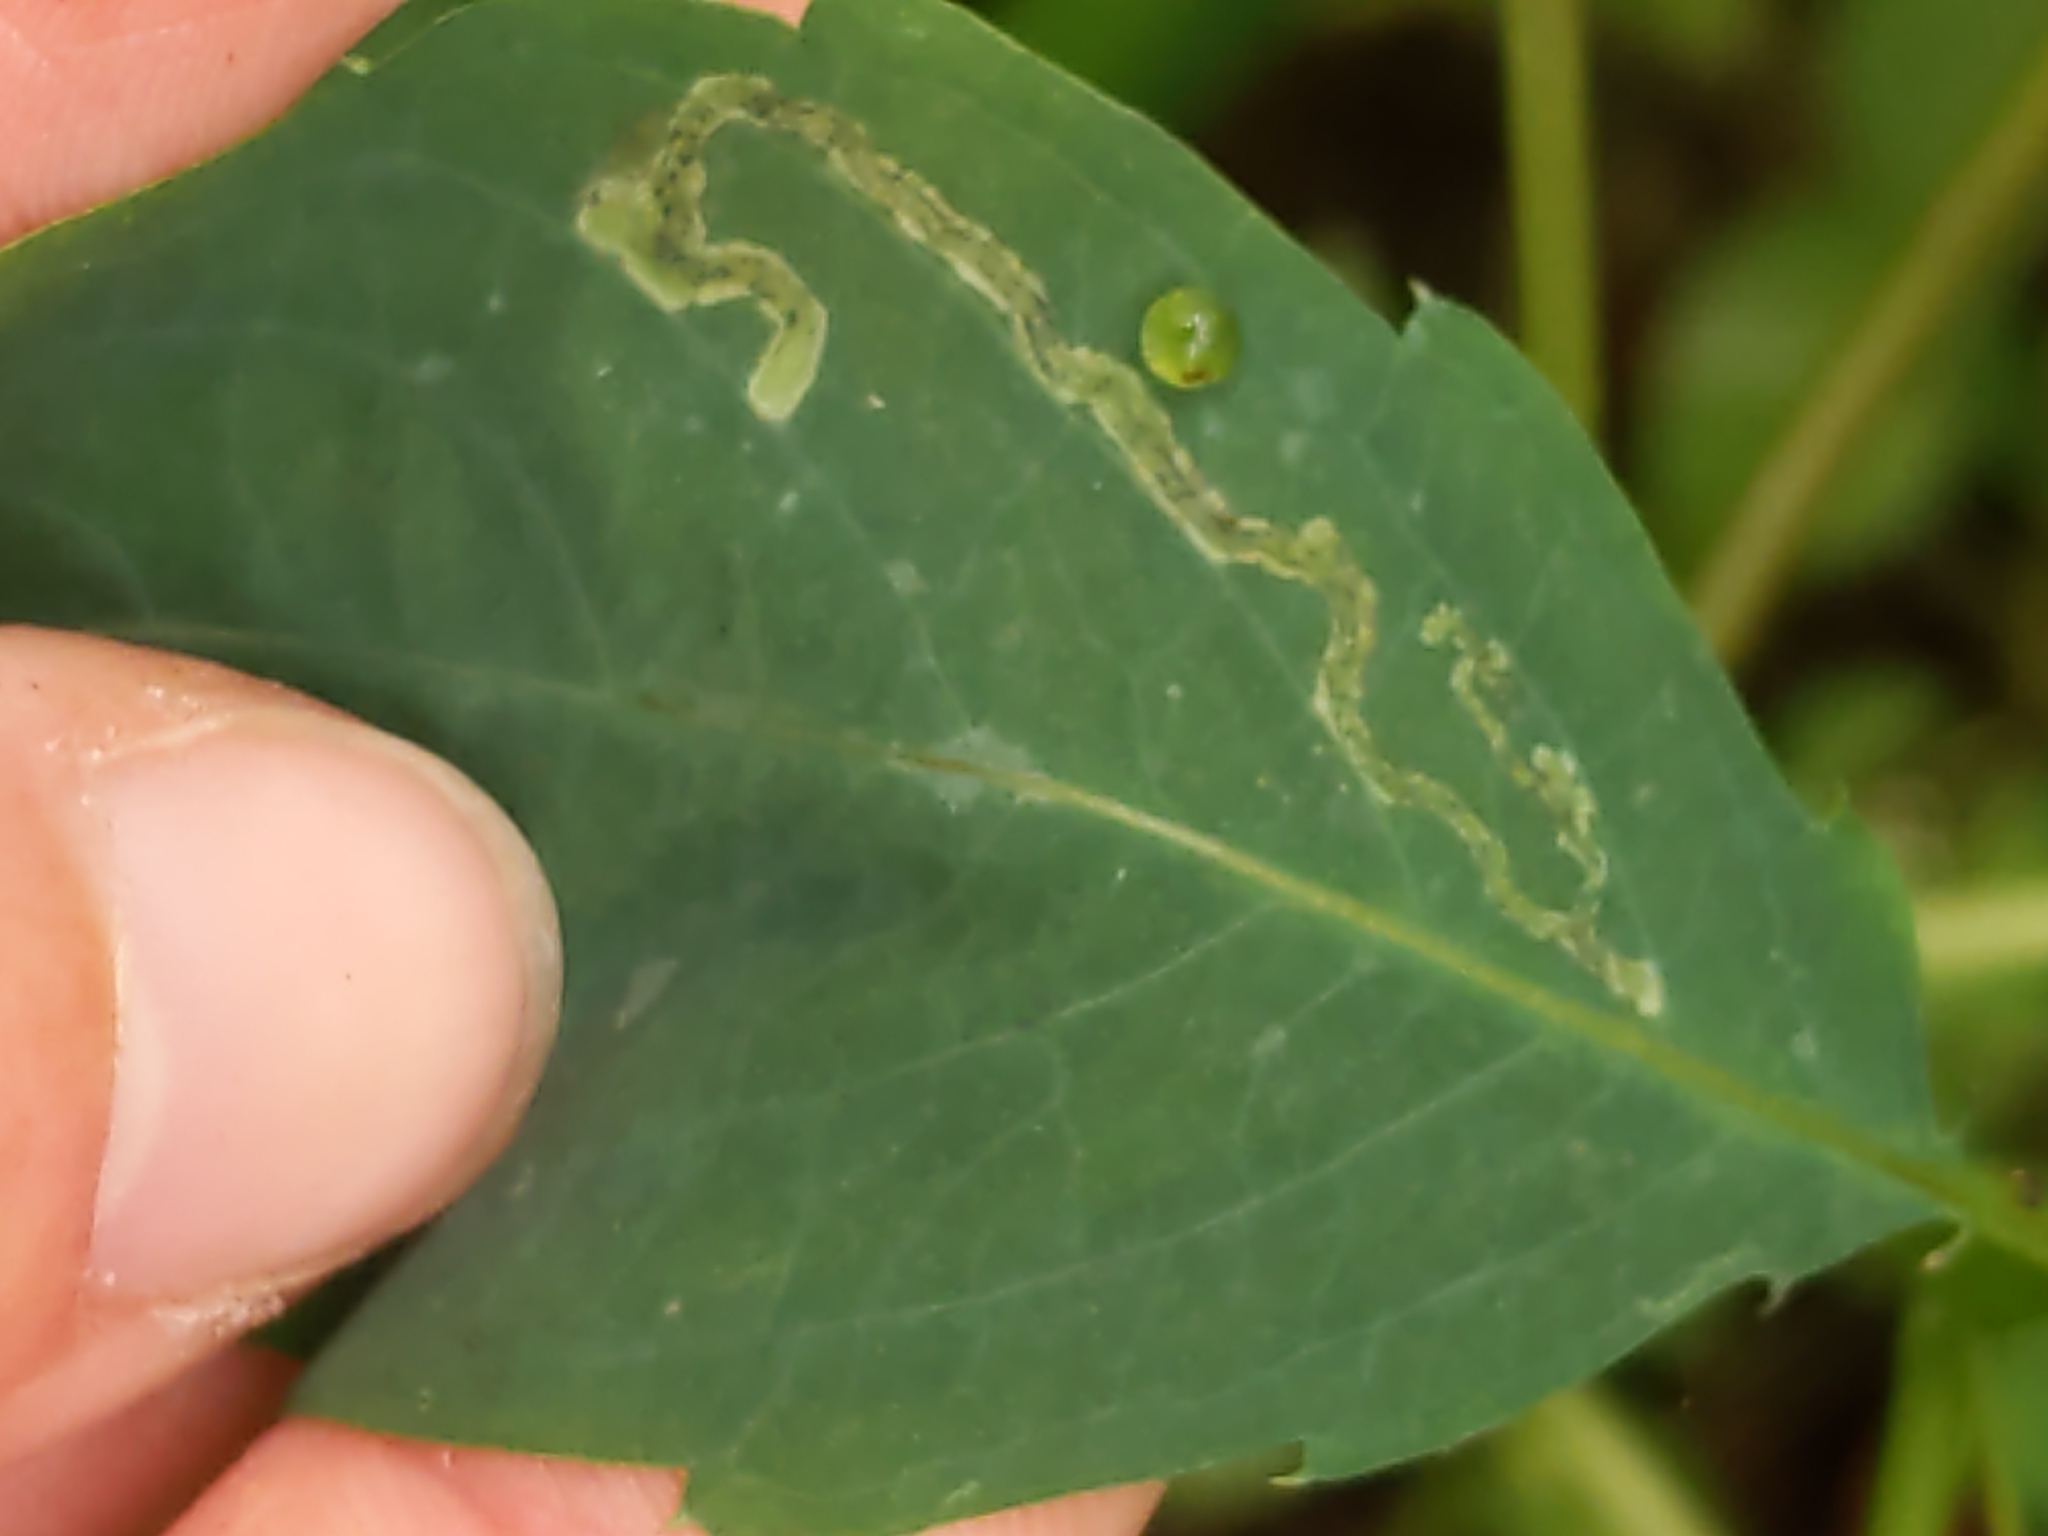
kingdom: Animalia
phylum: Arthropoda
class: Insecta
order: Diptera
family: Agromyzidae
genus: Phytoliriomyza
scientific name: Phytoliriomyza melampyga
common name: Jewelweed leaf-miner fly
